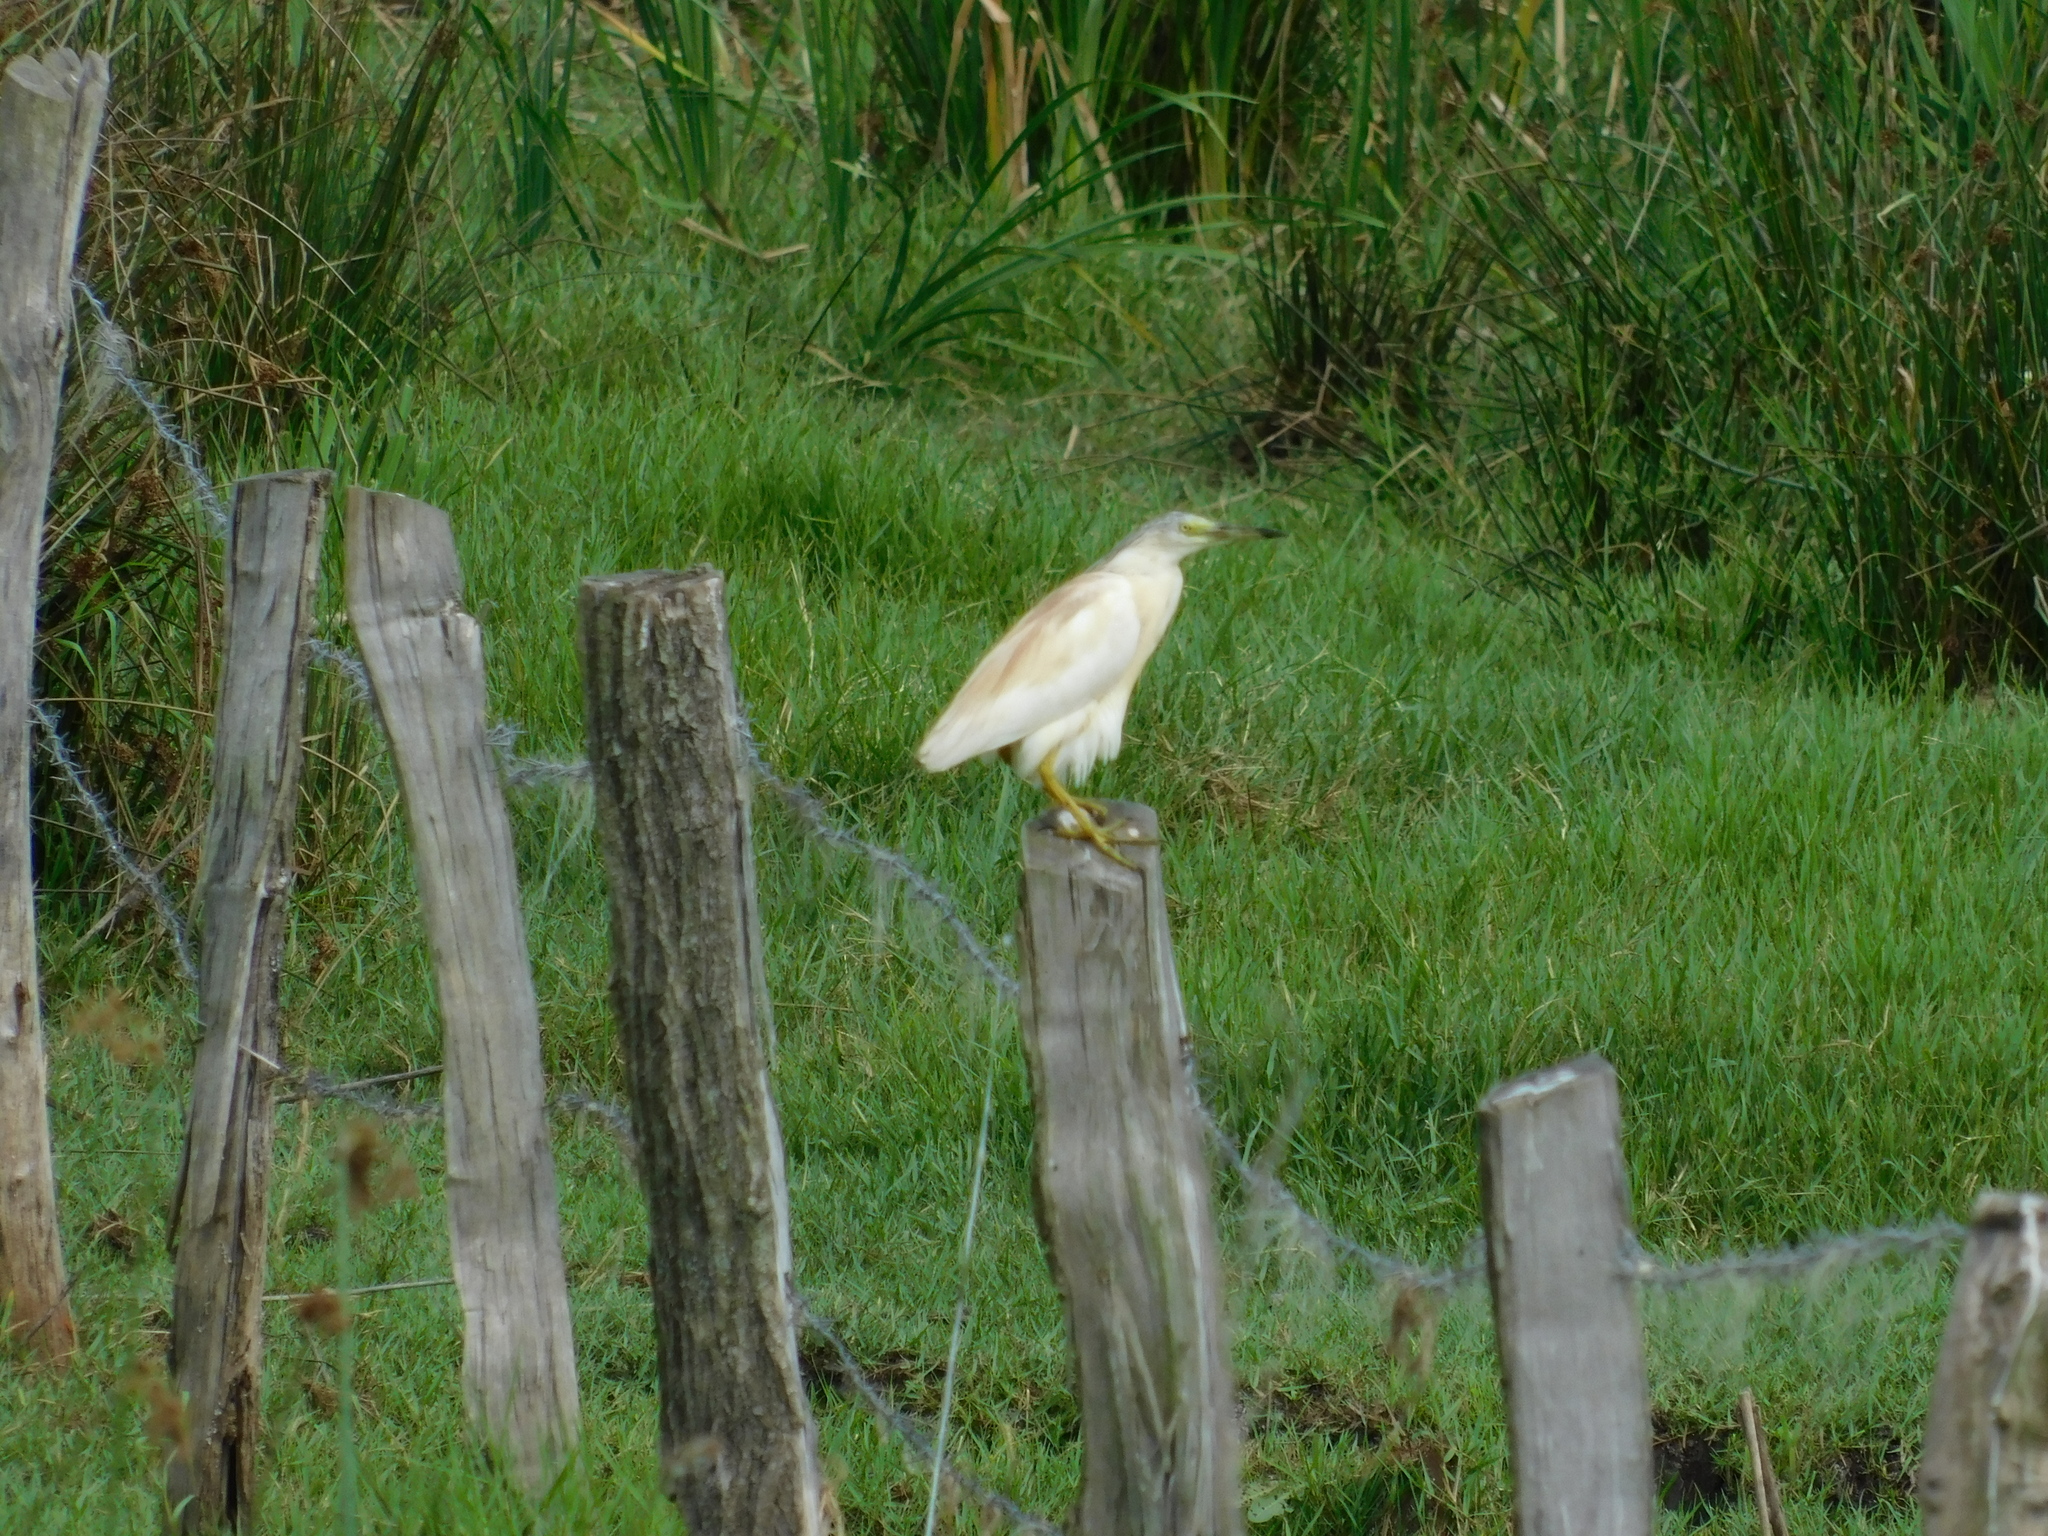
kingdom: Animalia
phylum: Chordata
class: Aves
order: Pelecaniformes
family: Ardeidae
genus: Ardeola
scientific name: Ardeola ralloides
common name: Squacco heron
